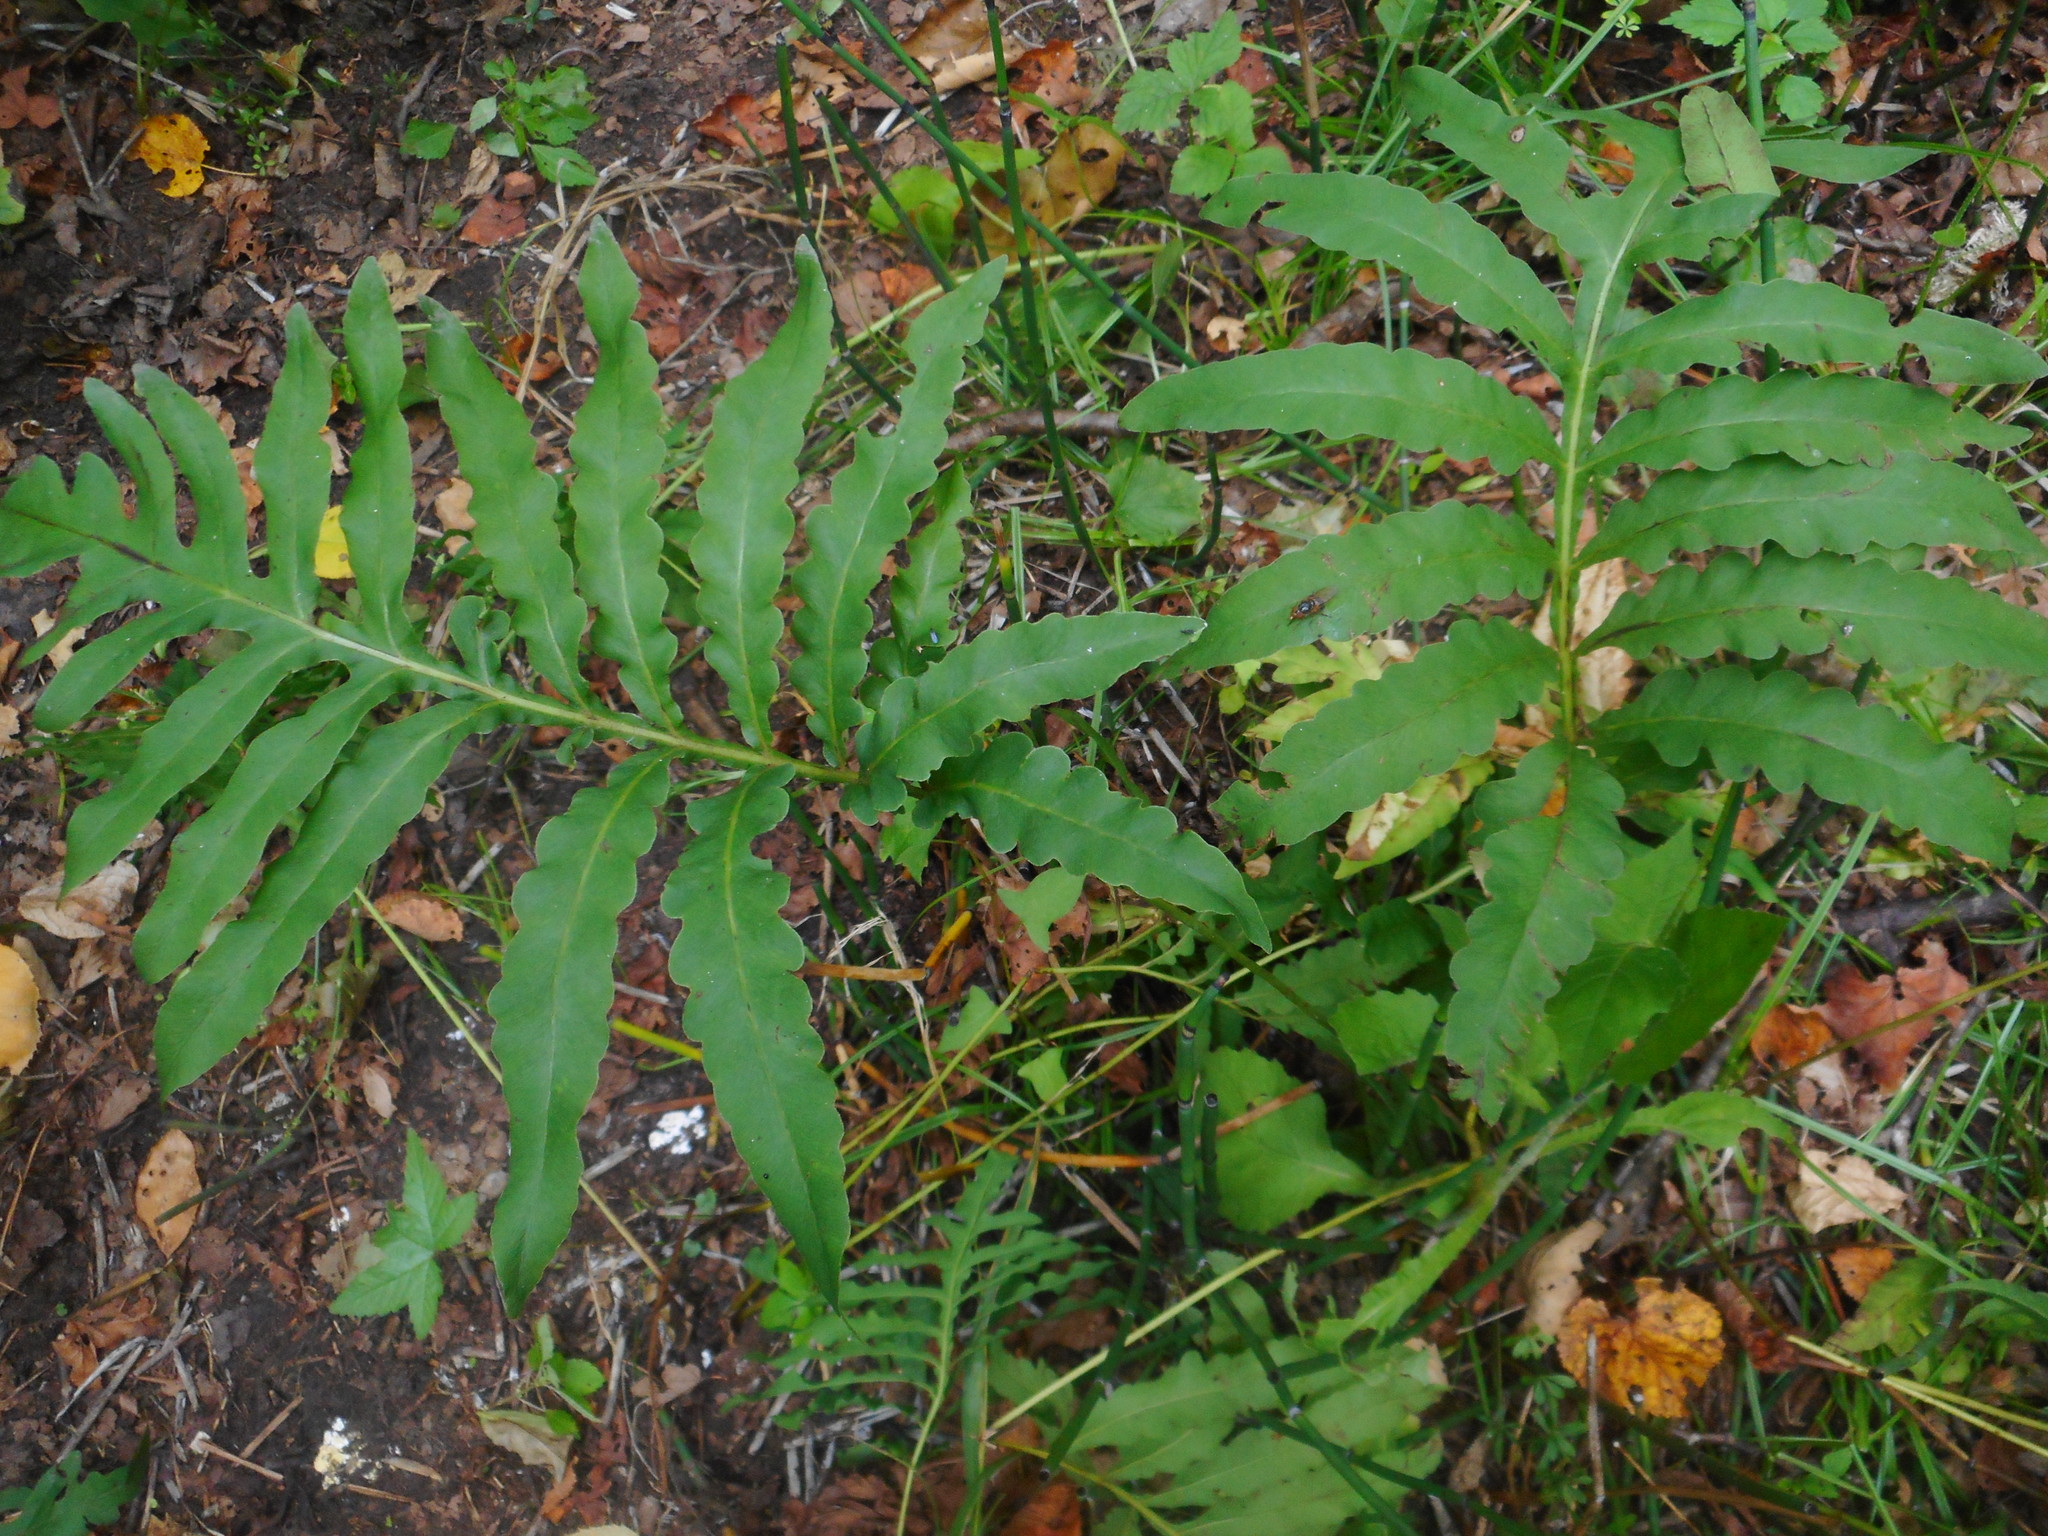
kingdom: Plantae
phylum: Tracheophyta
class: Polypodiopsida
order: Polypodiales
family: Onocleaceae
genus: Onoclea
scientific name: Onoclea sensibilis
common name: Sensitive fern
